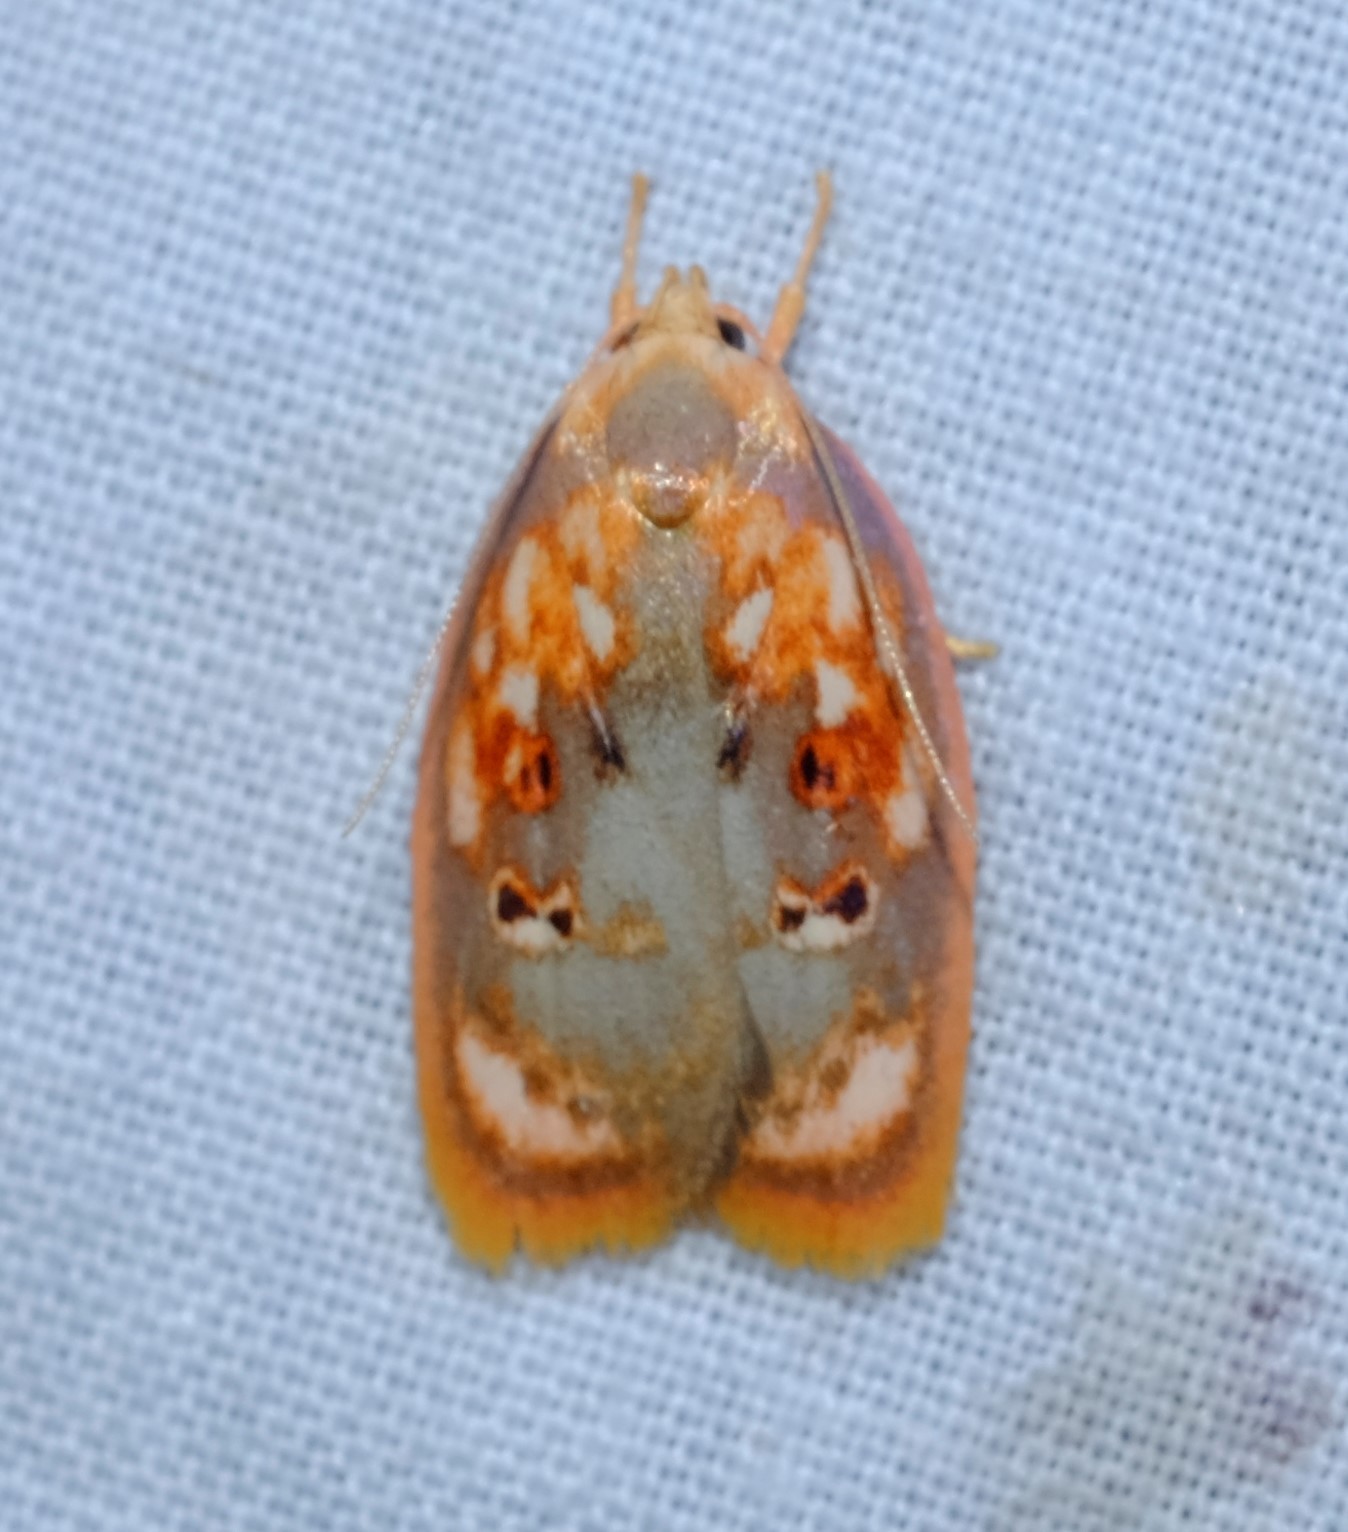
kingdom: Animalia
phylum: Arthropoda
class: Insecta
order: Lepidoptera
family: Oecophoridae
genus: Eochrois
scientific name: Eochrois sarcoxantha
